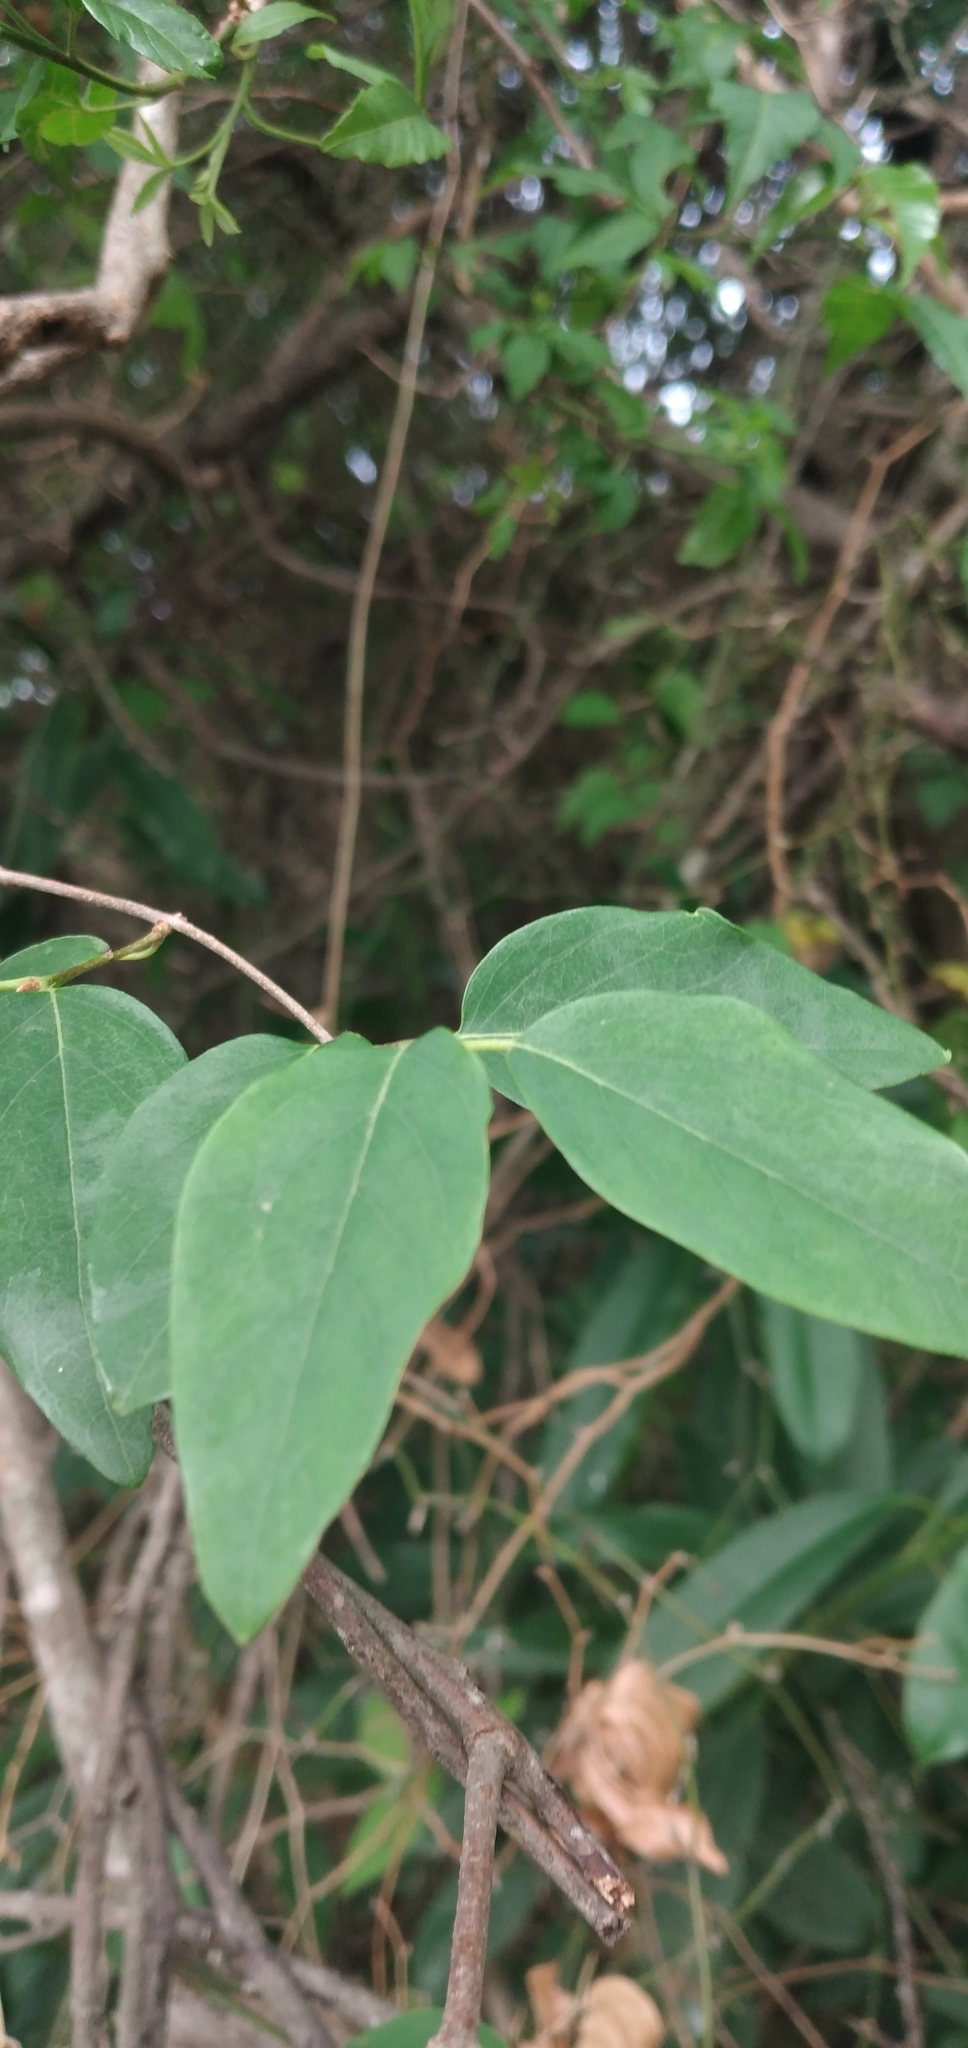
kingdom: Plantae
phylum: Tracheophyta
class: Magnoliopsida
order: Malpighiales
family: Malpighiaceae
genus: Janusia
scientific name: Janusia guaranitica
